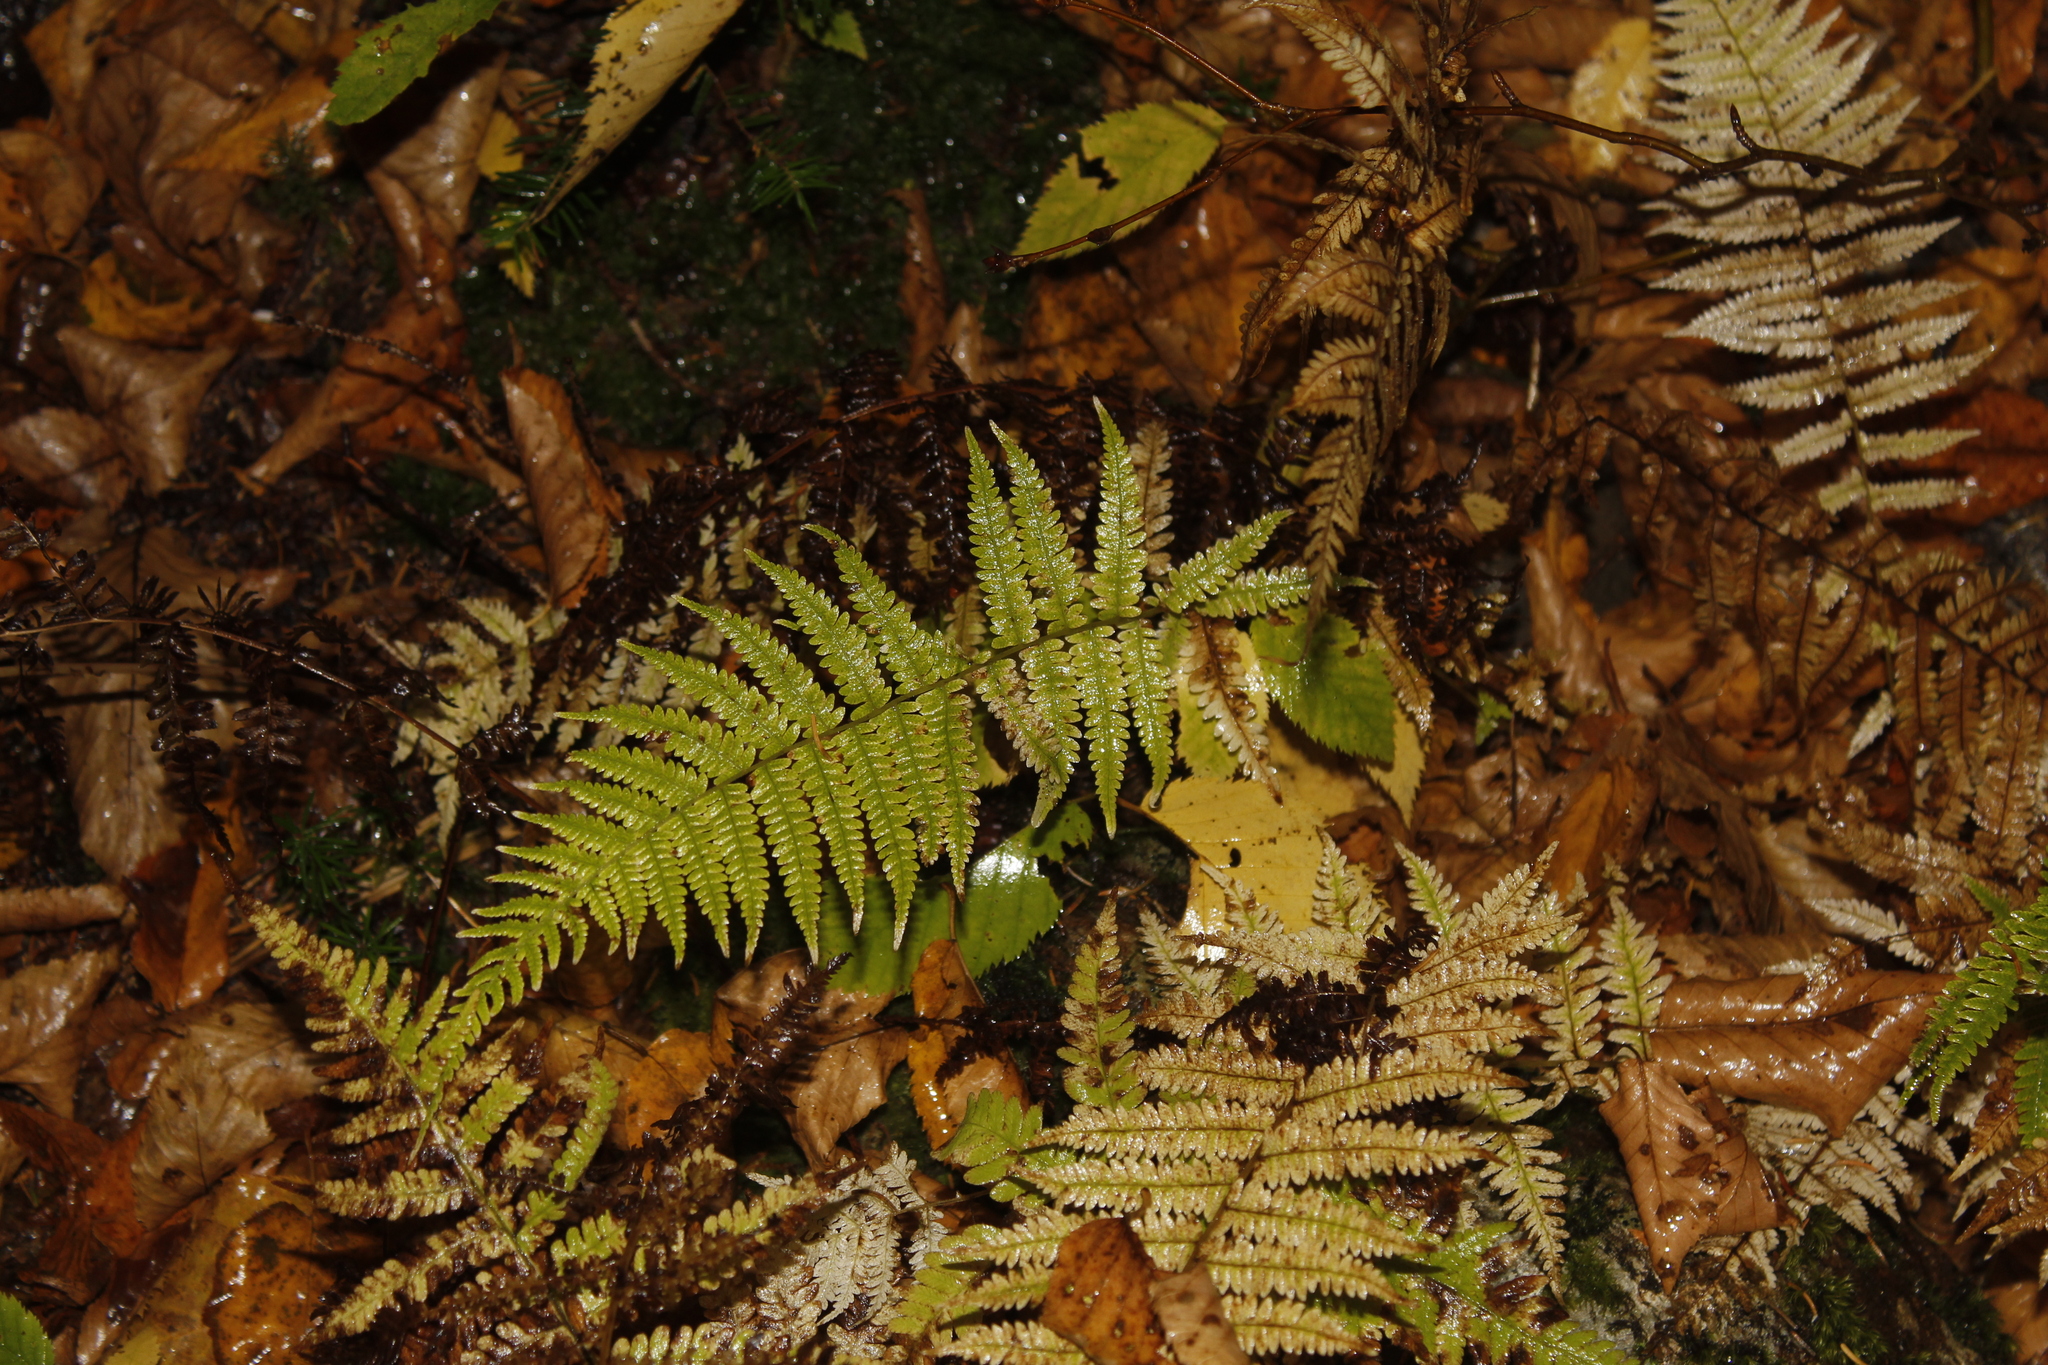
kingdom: Plantae
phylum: Tracheophyta
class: Polypodiopsida
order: Polypodiales
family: Thelypteridaceae
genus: Amauropelta
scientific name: Amauropelta noveboracensis
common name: New york fern
